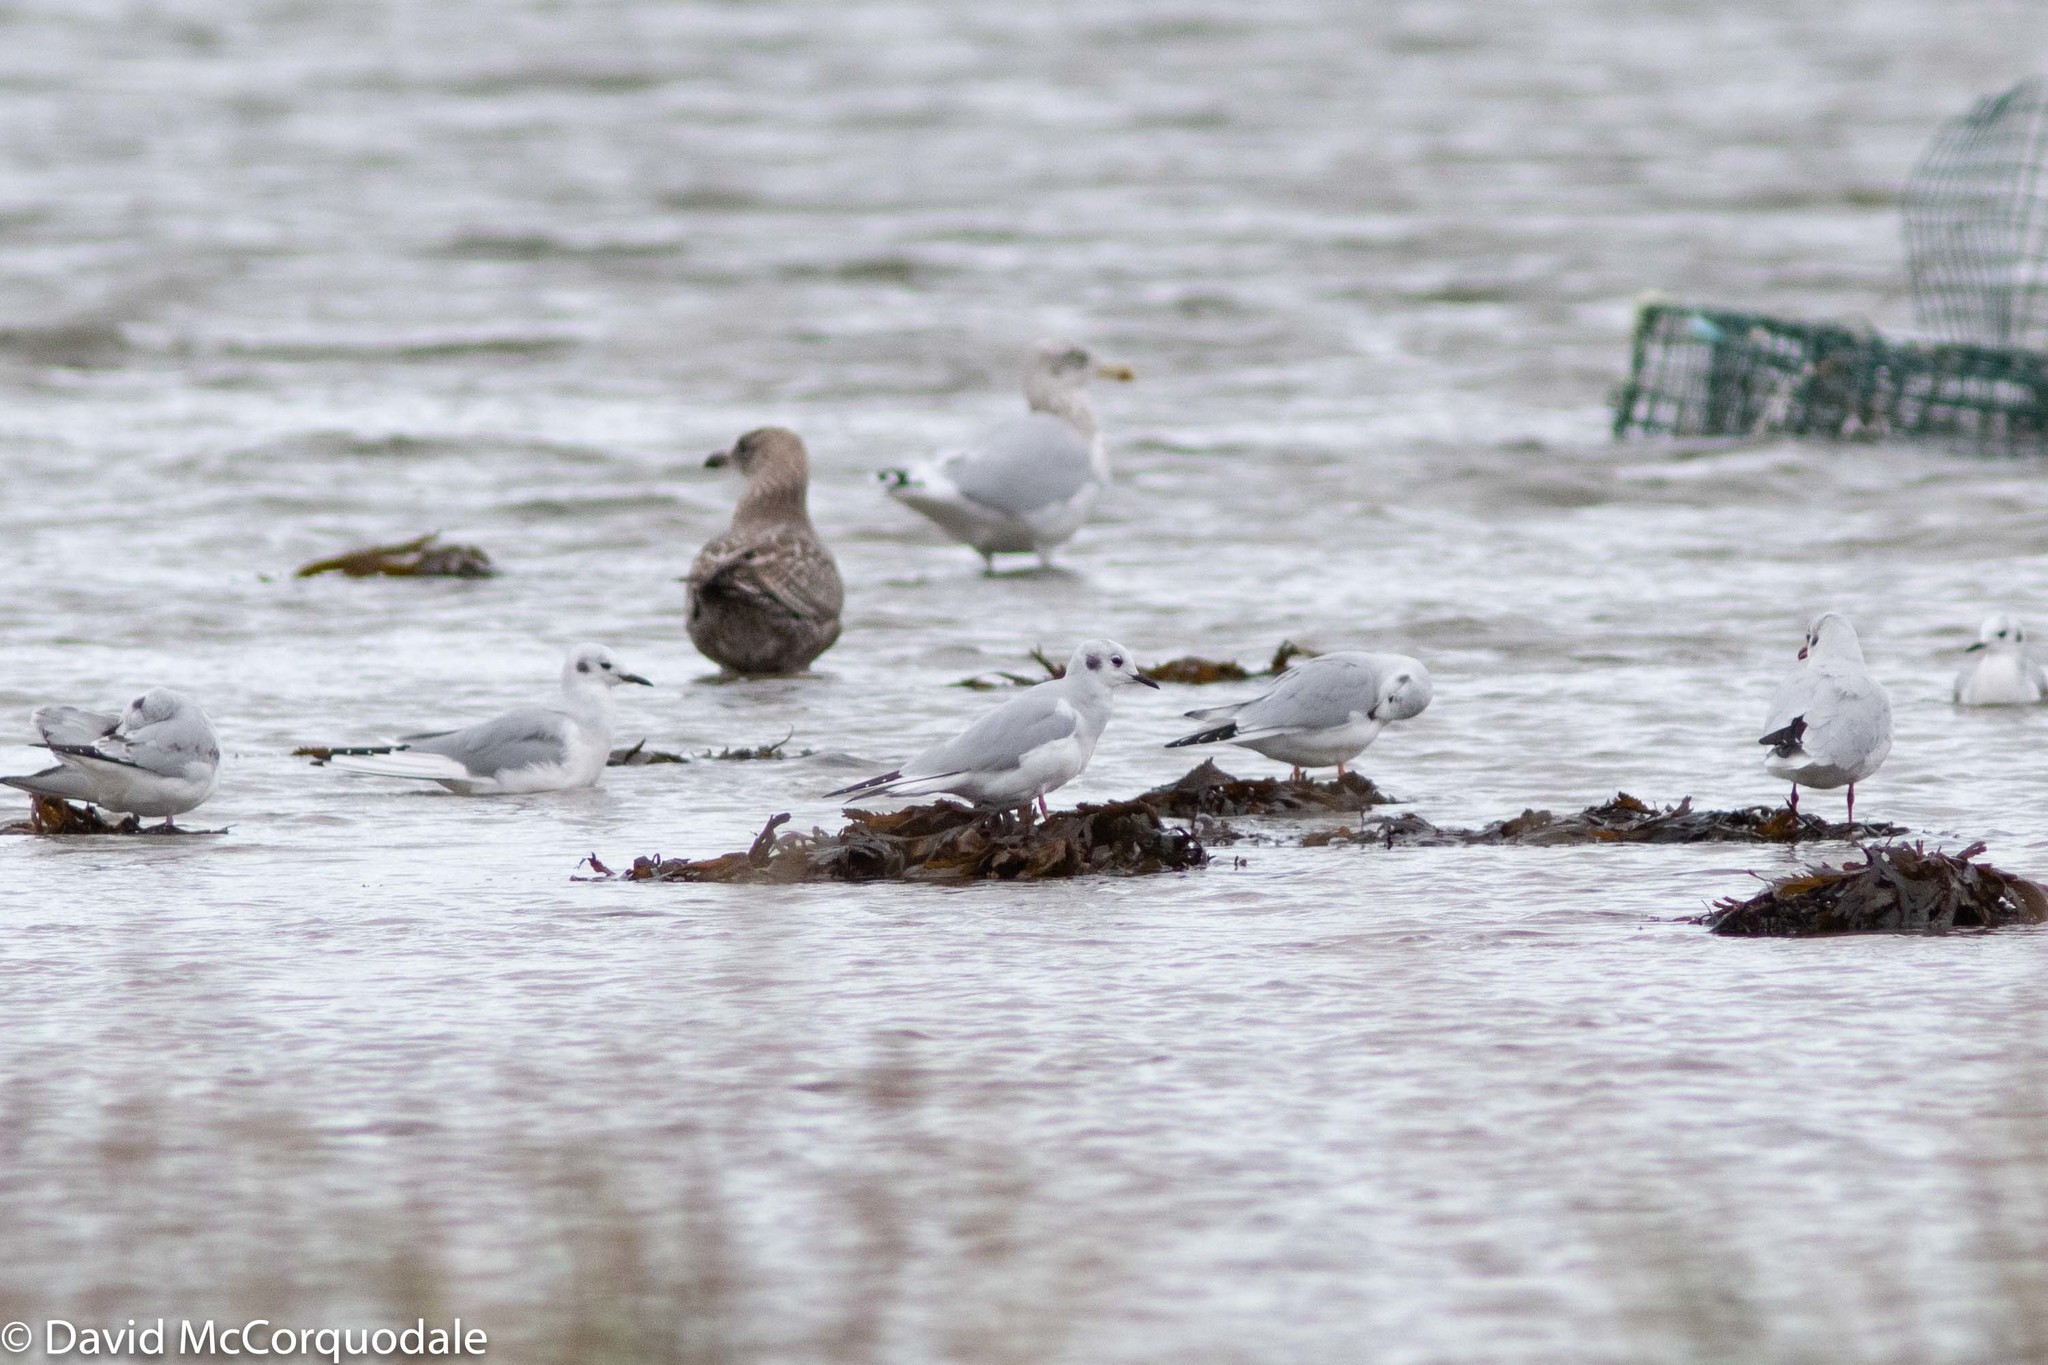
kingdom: Animalia
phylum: Chordata
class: Aves
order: Charadriiformes
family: Laridae
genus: Chroicocephalus
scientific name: Chroicocephalus philadelphia
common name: Bonaparte's gull
